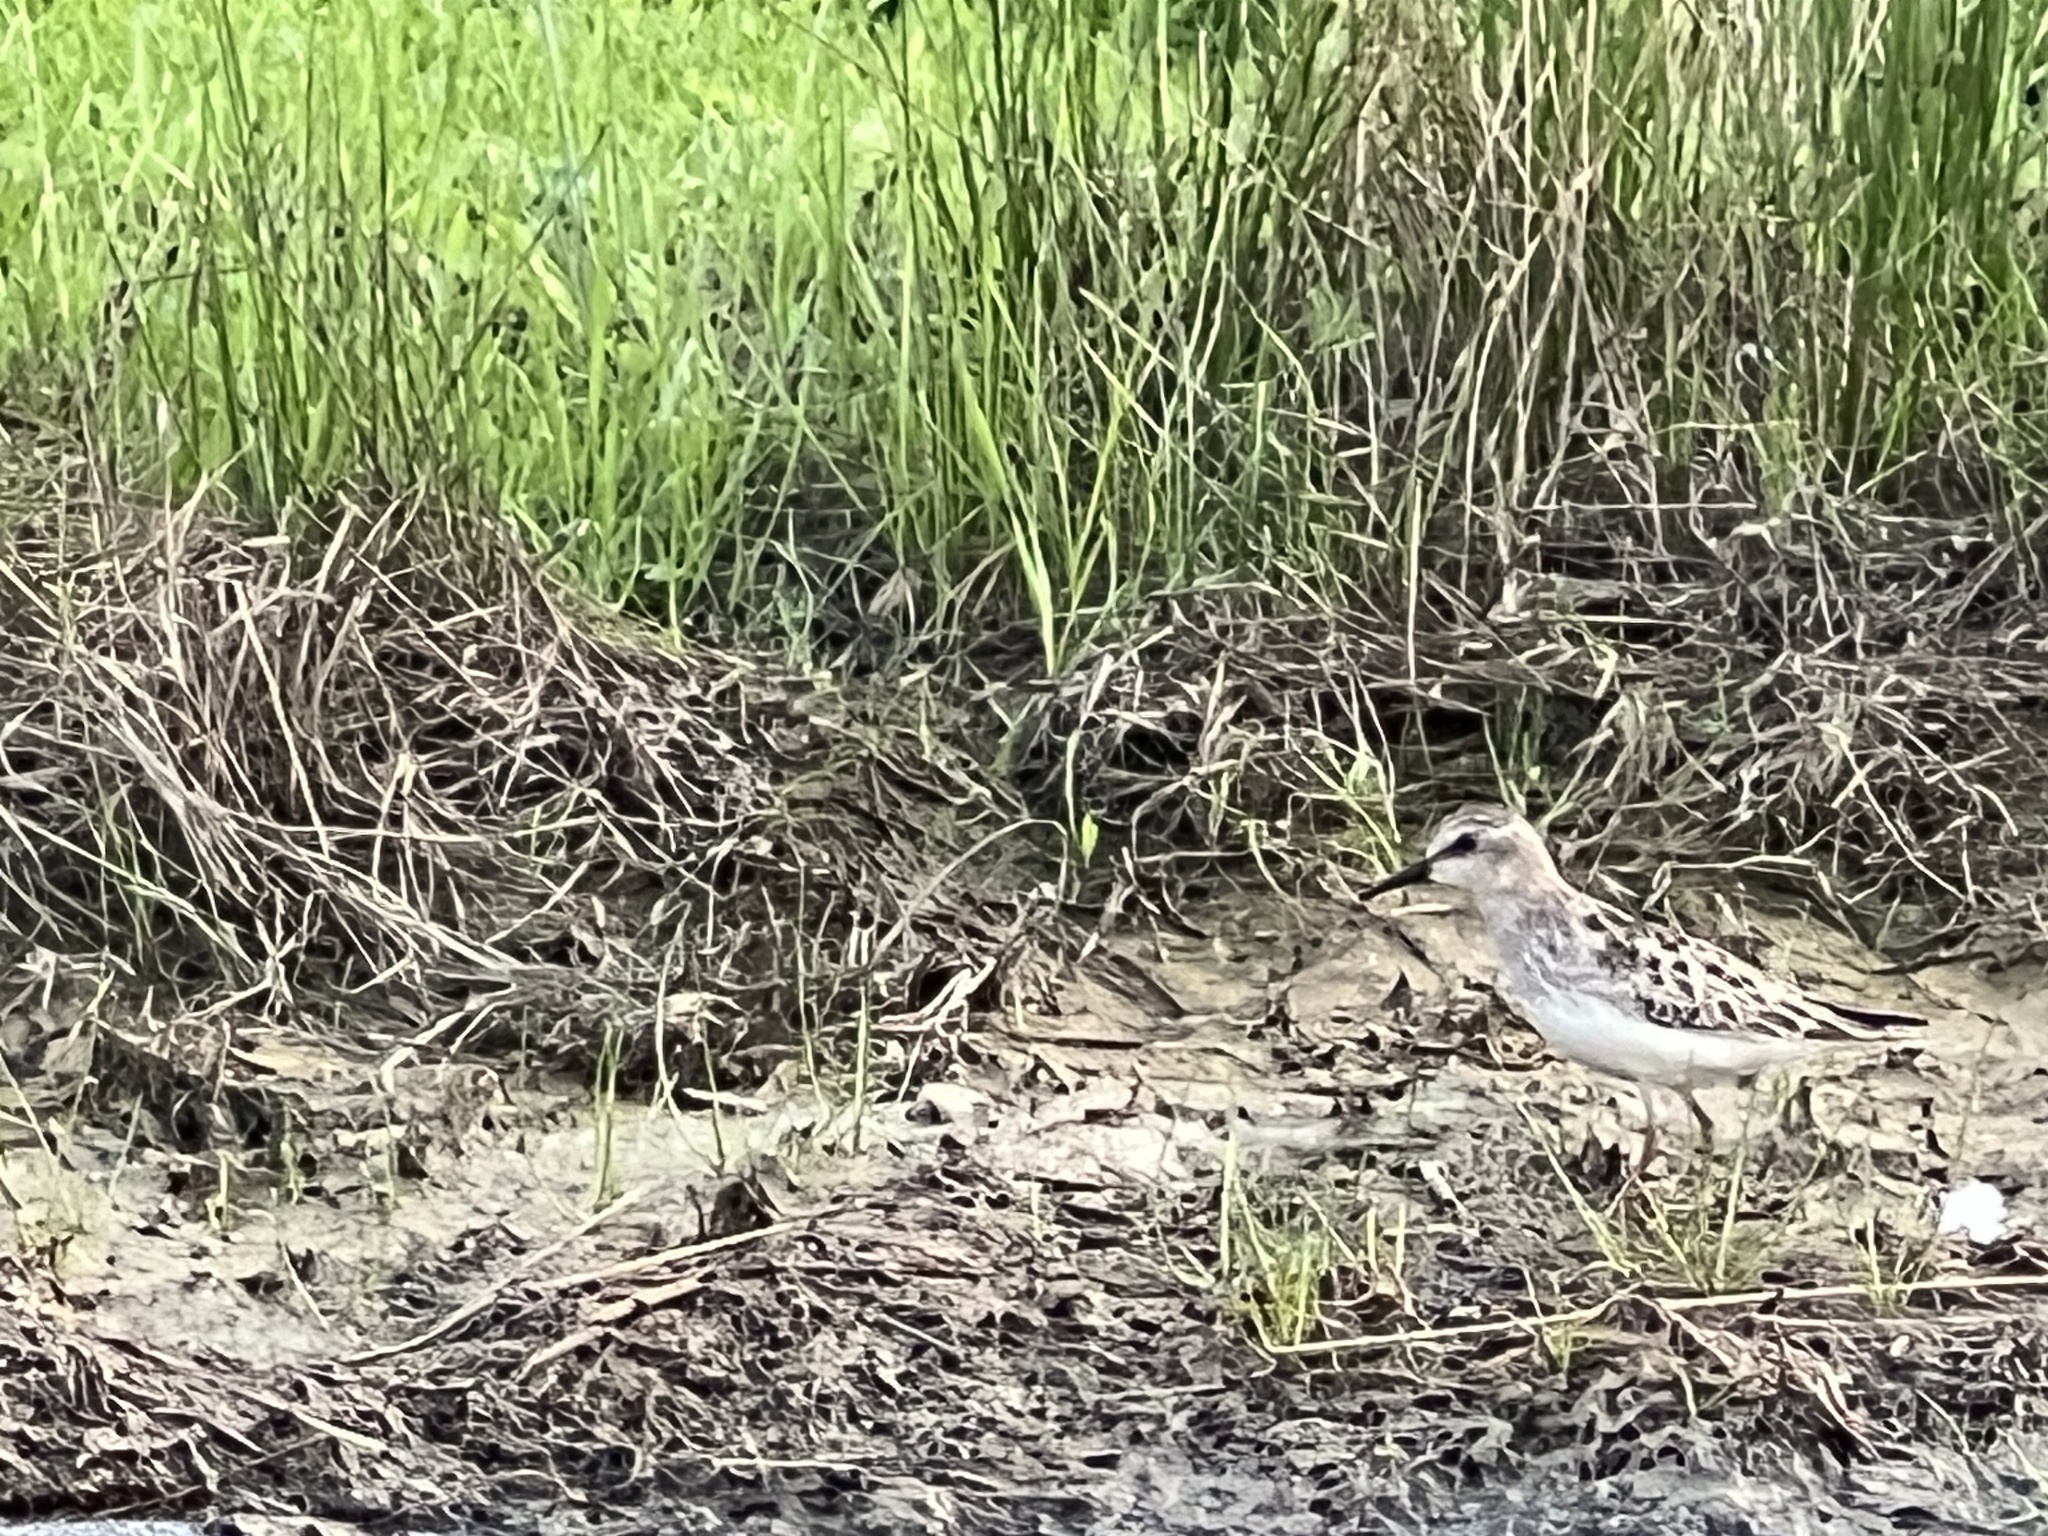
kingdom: Animalia
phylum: Chordata
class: Aves
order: Charadriiformes
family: Scolopacidae
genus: Calidris
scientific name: Calidris minutilla
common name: Least sandpiper
